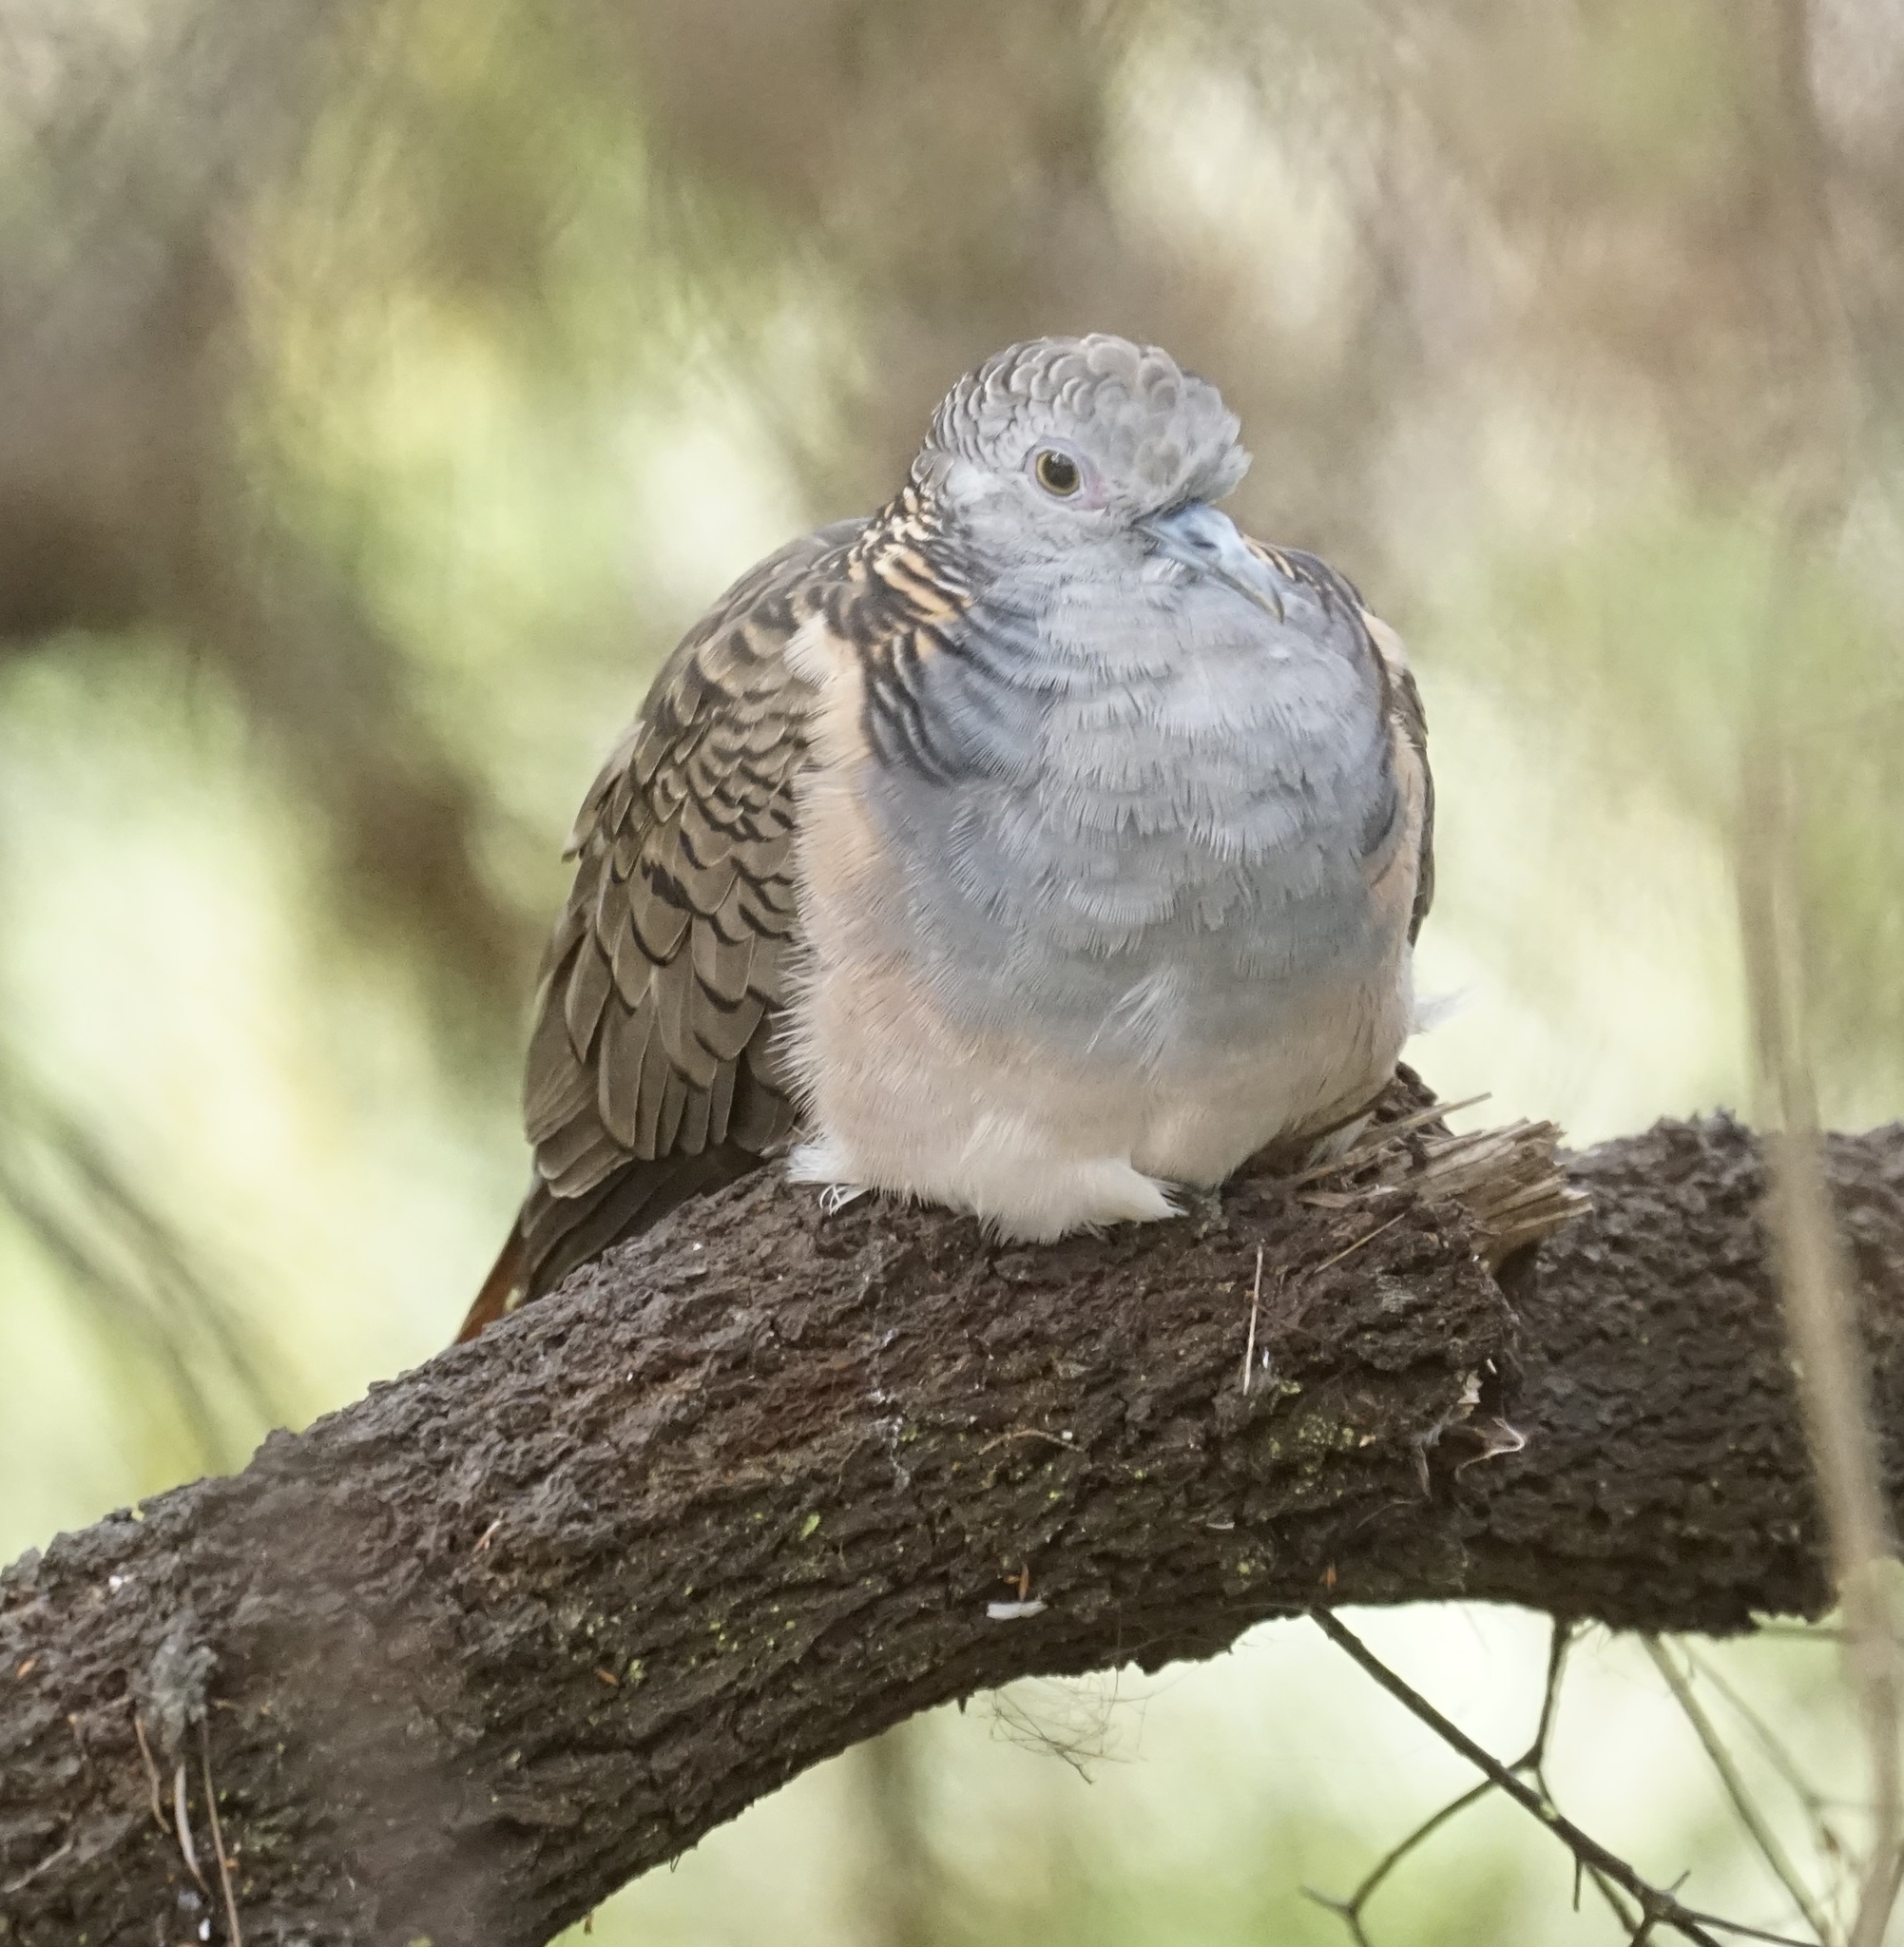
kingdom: Animalia
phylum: Chordata
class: Aves
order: Columbiformes
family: Columbidae
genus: Geopelia
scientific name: Geopelia humeralis
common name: Bar-shouldered dove
